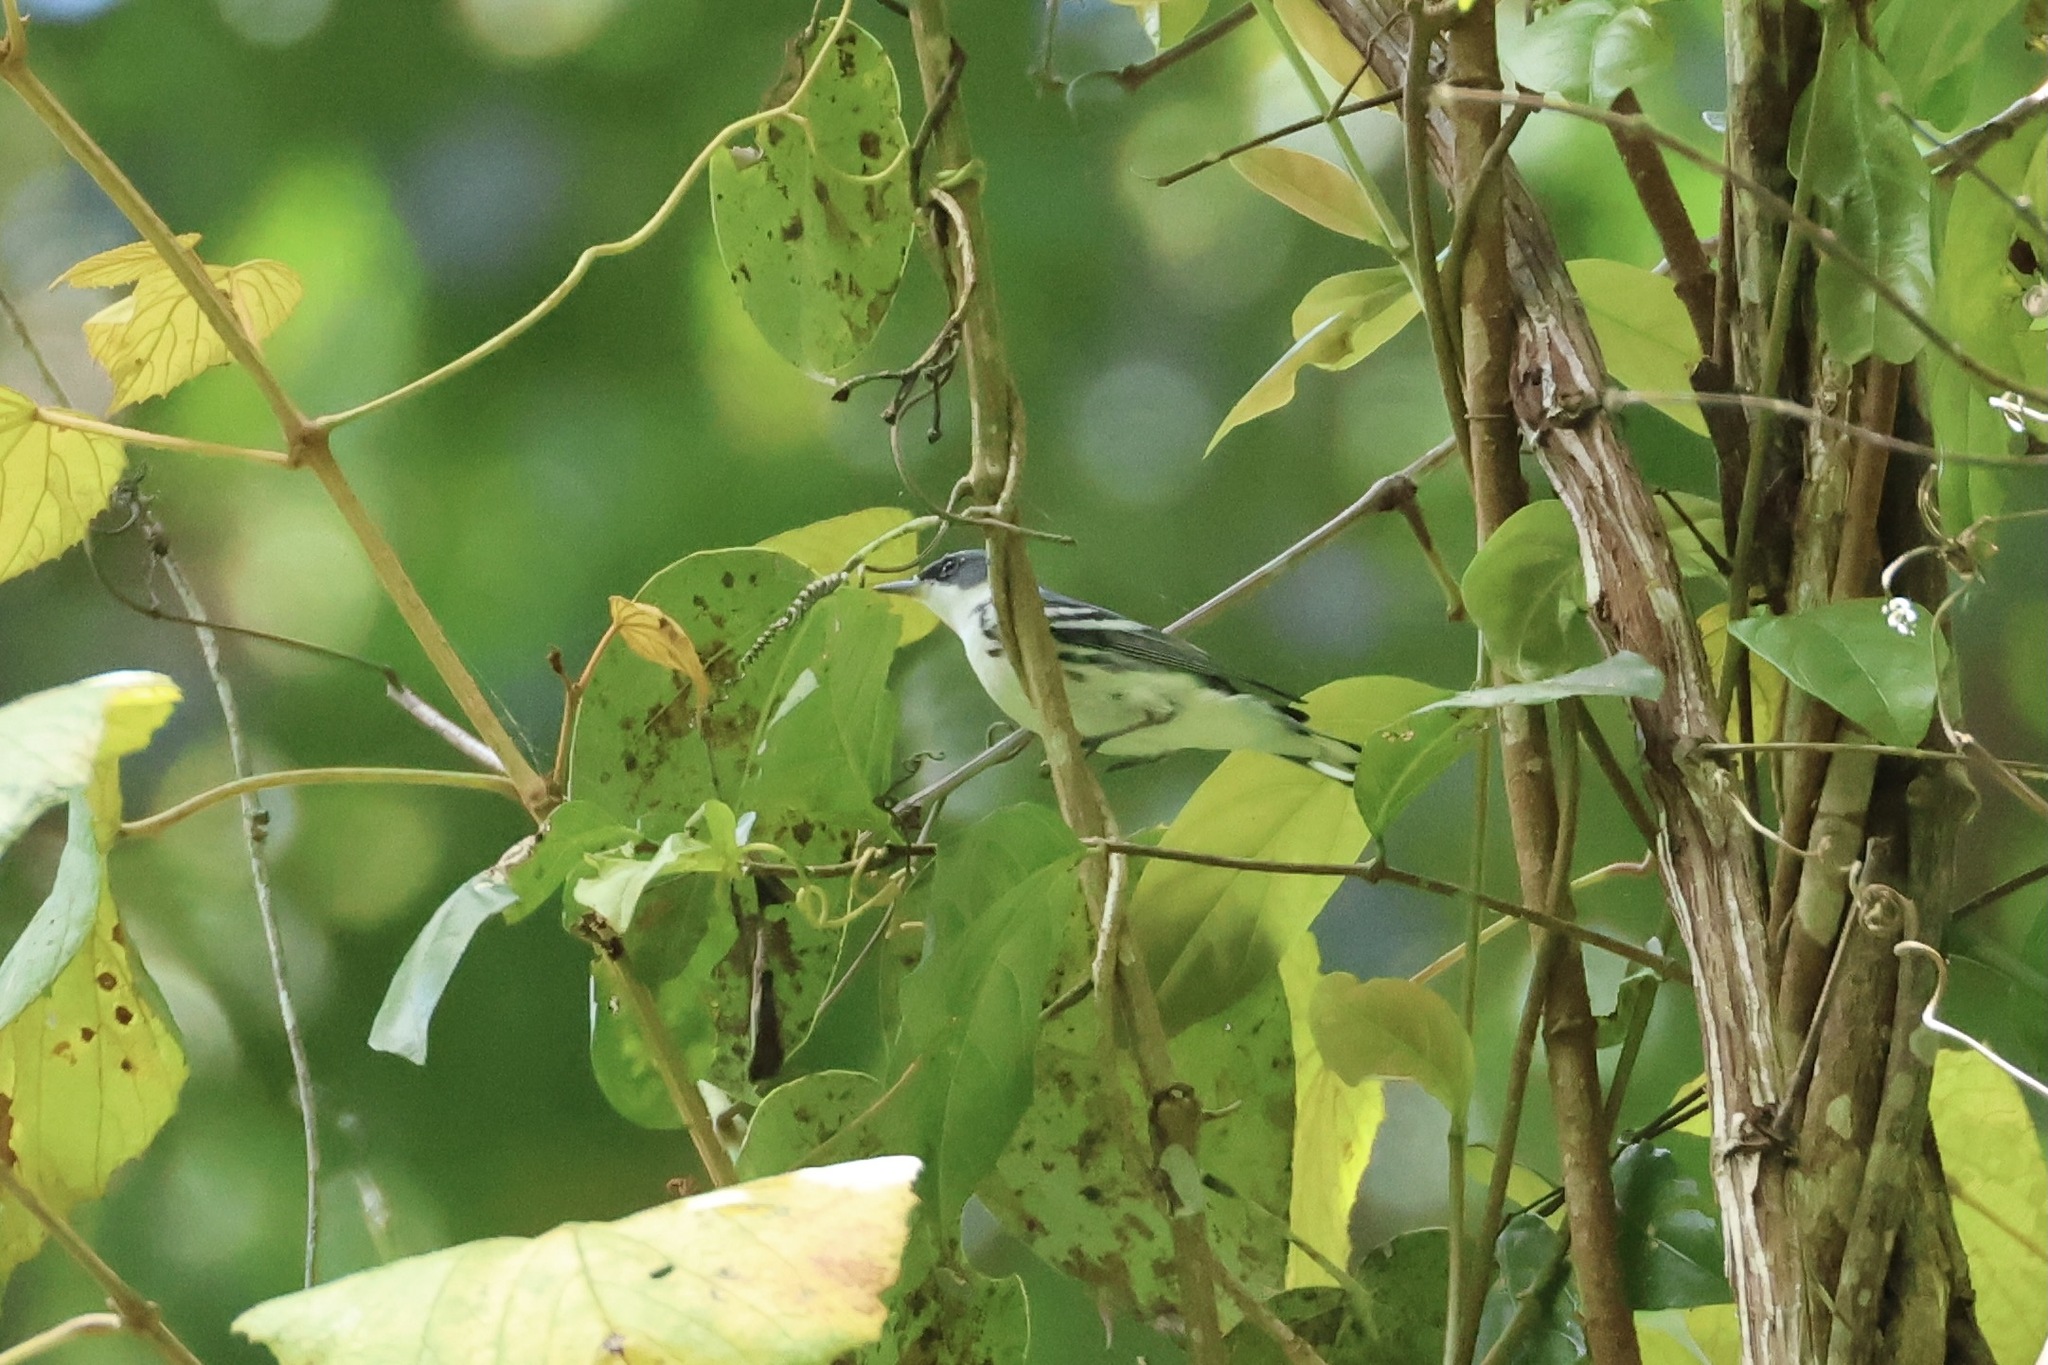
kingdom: Animalia
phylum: Chordata
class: Aves
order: Passeriformes
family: Parulidae
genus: Setophaga
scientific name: Setophaga cerulea
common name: Cerulean warbler
